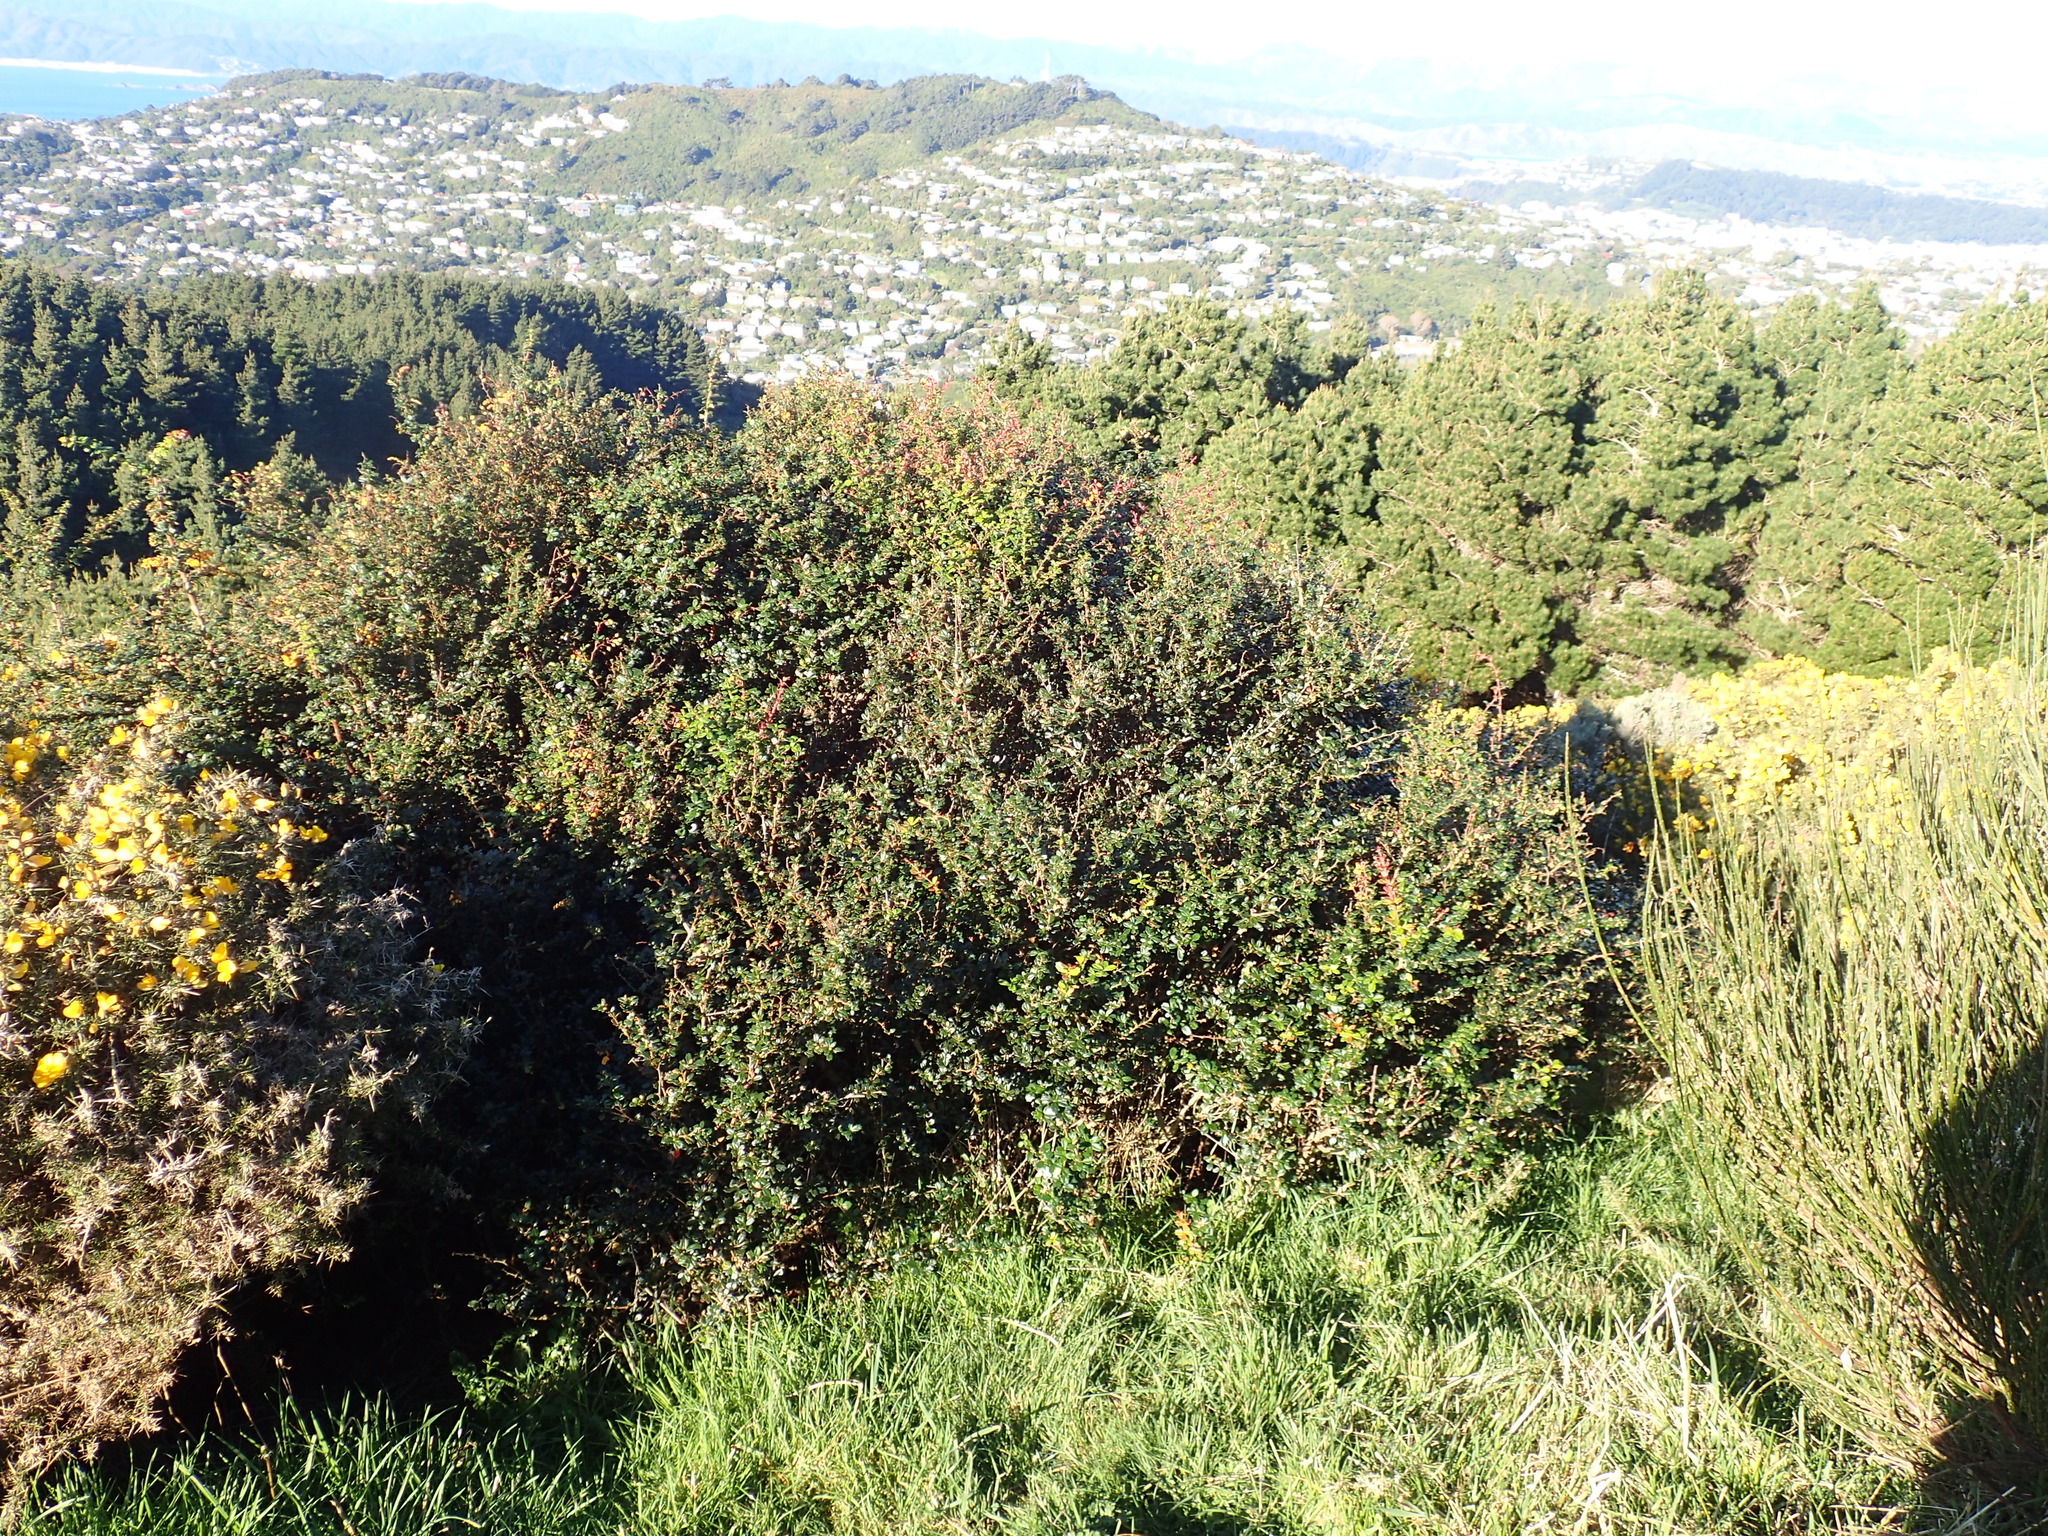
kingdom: Plantae
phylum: Tracheophyta
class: Magnoliopsida
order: Ranunculales
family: Berberidaceae
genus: Berberis
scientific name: Berberis darwinii
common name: Darwin's barberry
